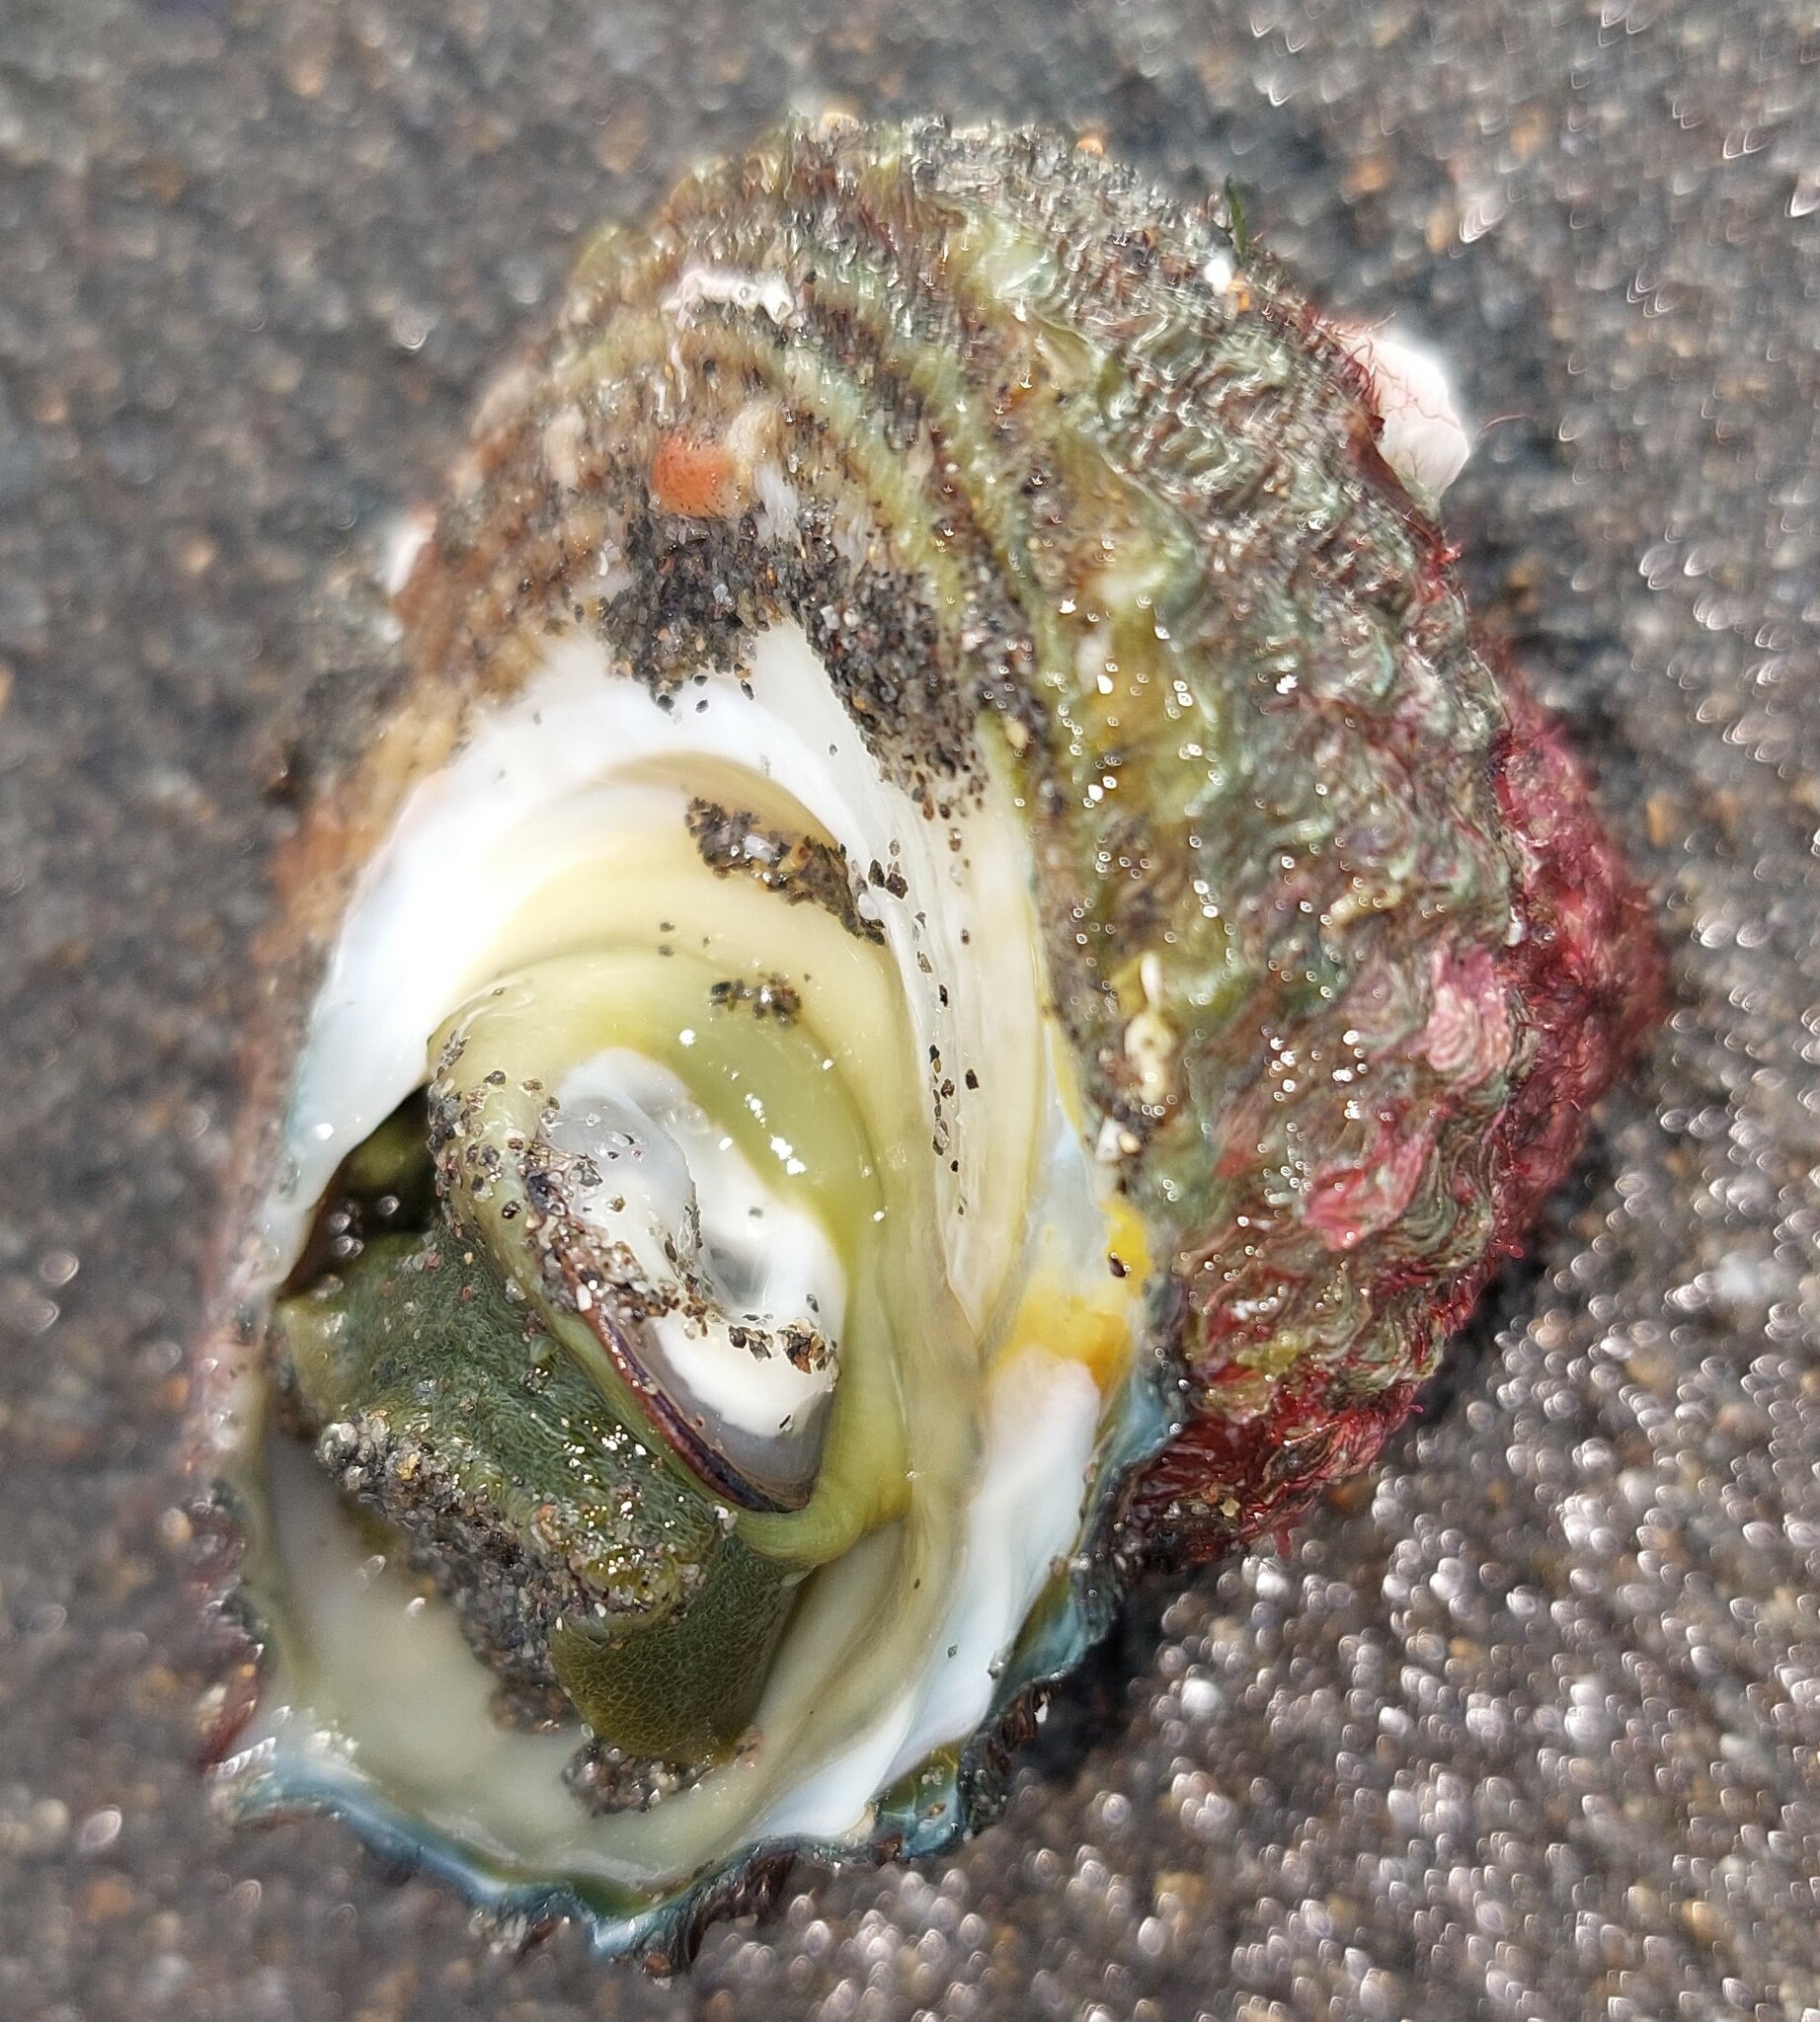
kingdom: Animalia
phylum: Mollusca
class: Gastropoda
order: Trochida
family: Turbinidae
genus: Cookia
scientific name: Cookia sulcata
